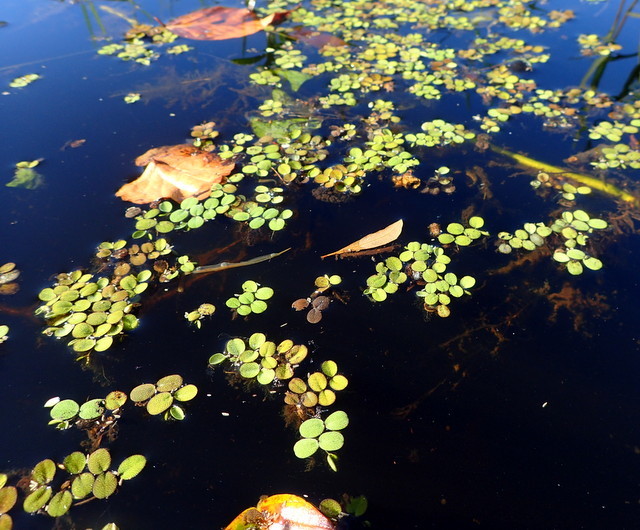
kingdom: Plantae
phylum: Tracheophyta
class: Polypodiopsida
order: Salviniales
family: Salviniaceae
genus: Salvinia
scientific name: Salvinia minima
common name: Water spangles
